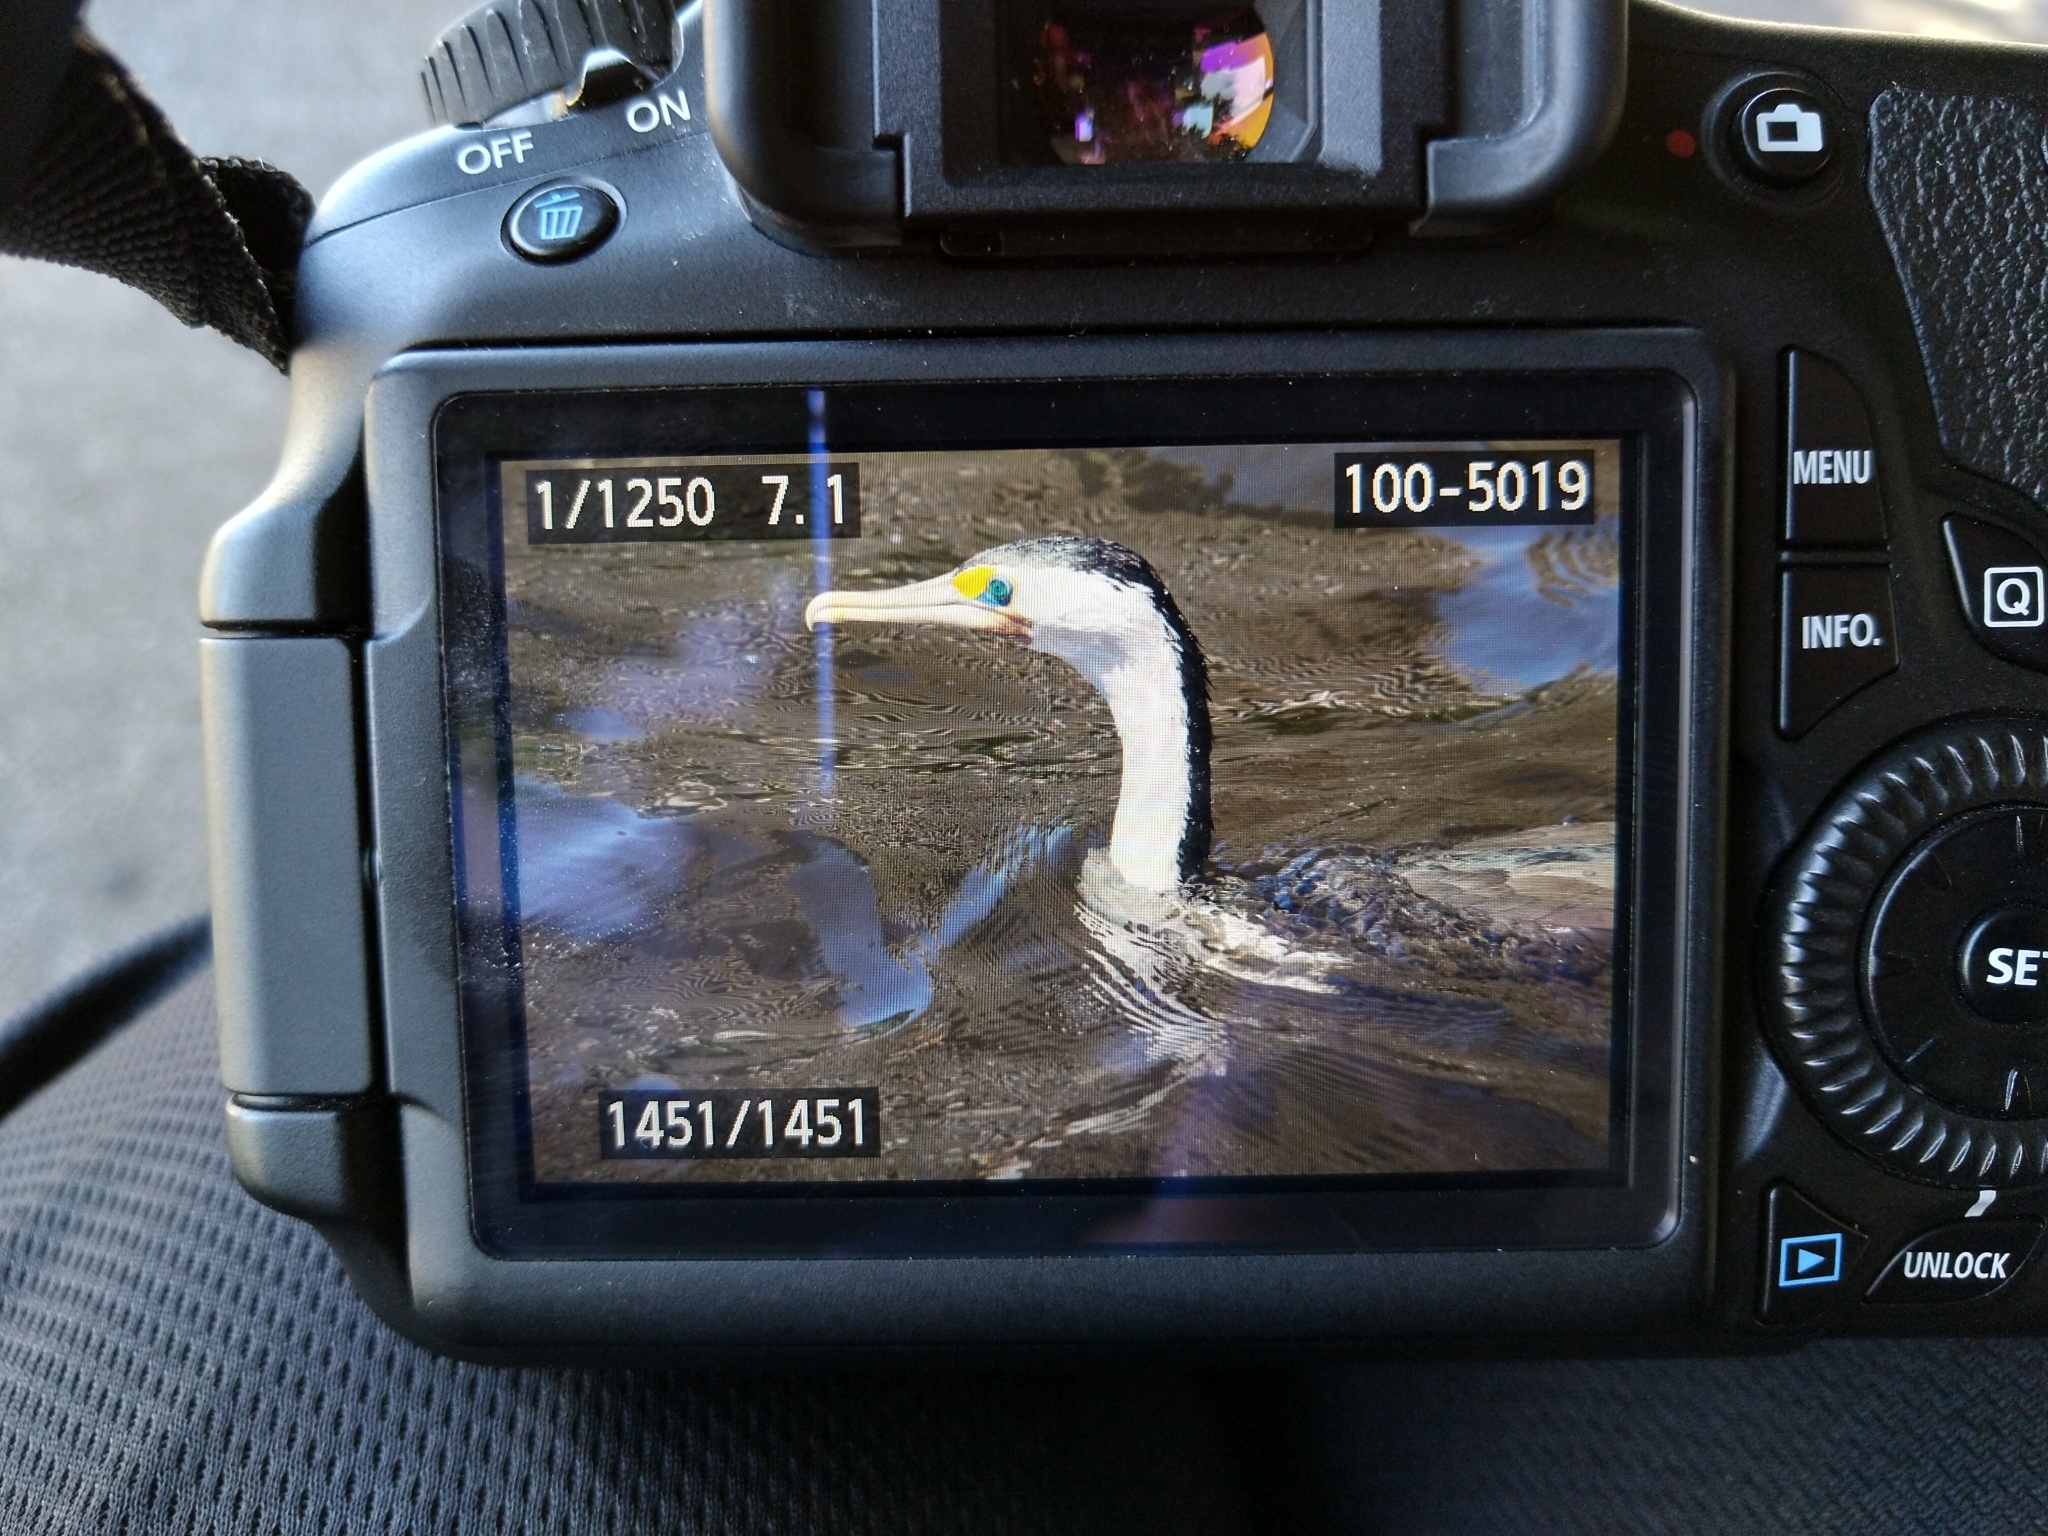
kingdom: Animalia
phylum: Chordata
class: Aves
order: Suliformes
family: Phalacrocoracidae
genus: Phalacrocorax
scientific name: Phalacrocorax varius
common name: Pied cormorant
